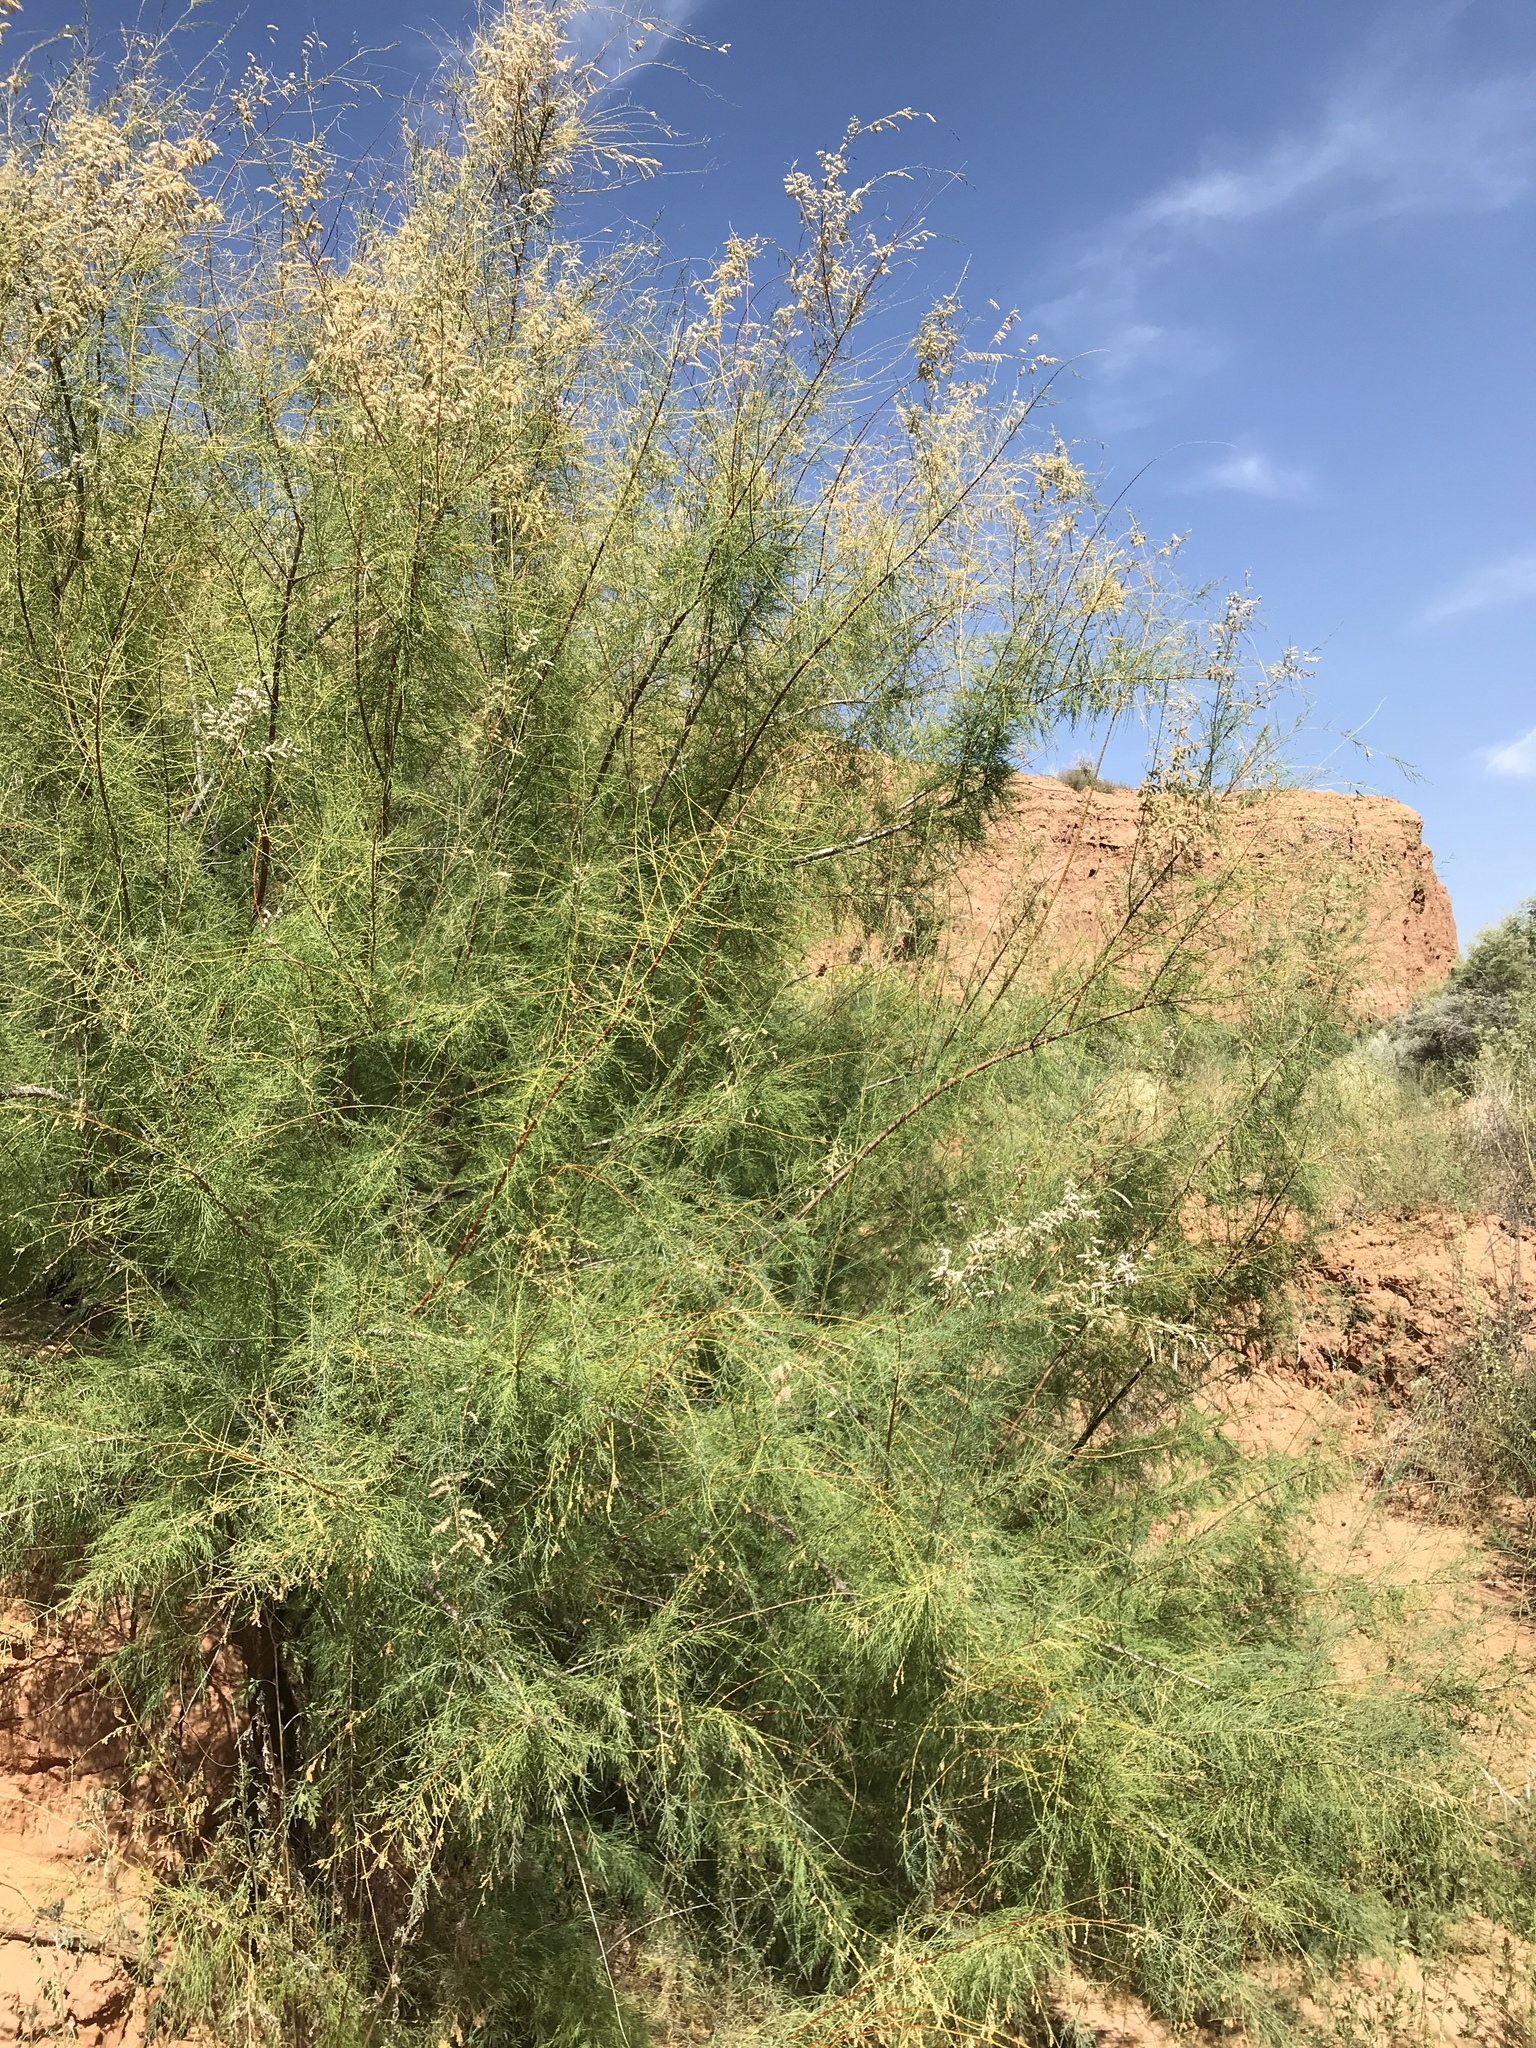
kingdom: Plantae
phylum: Tracheophyta
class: Magnoliopsida
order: Caryophyllales
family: Tamaricaceae
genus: Tamarix
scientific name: Tamarix ramosissima
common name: Pink tamarisk
